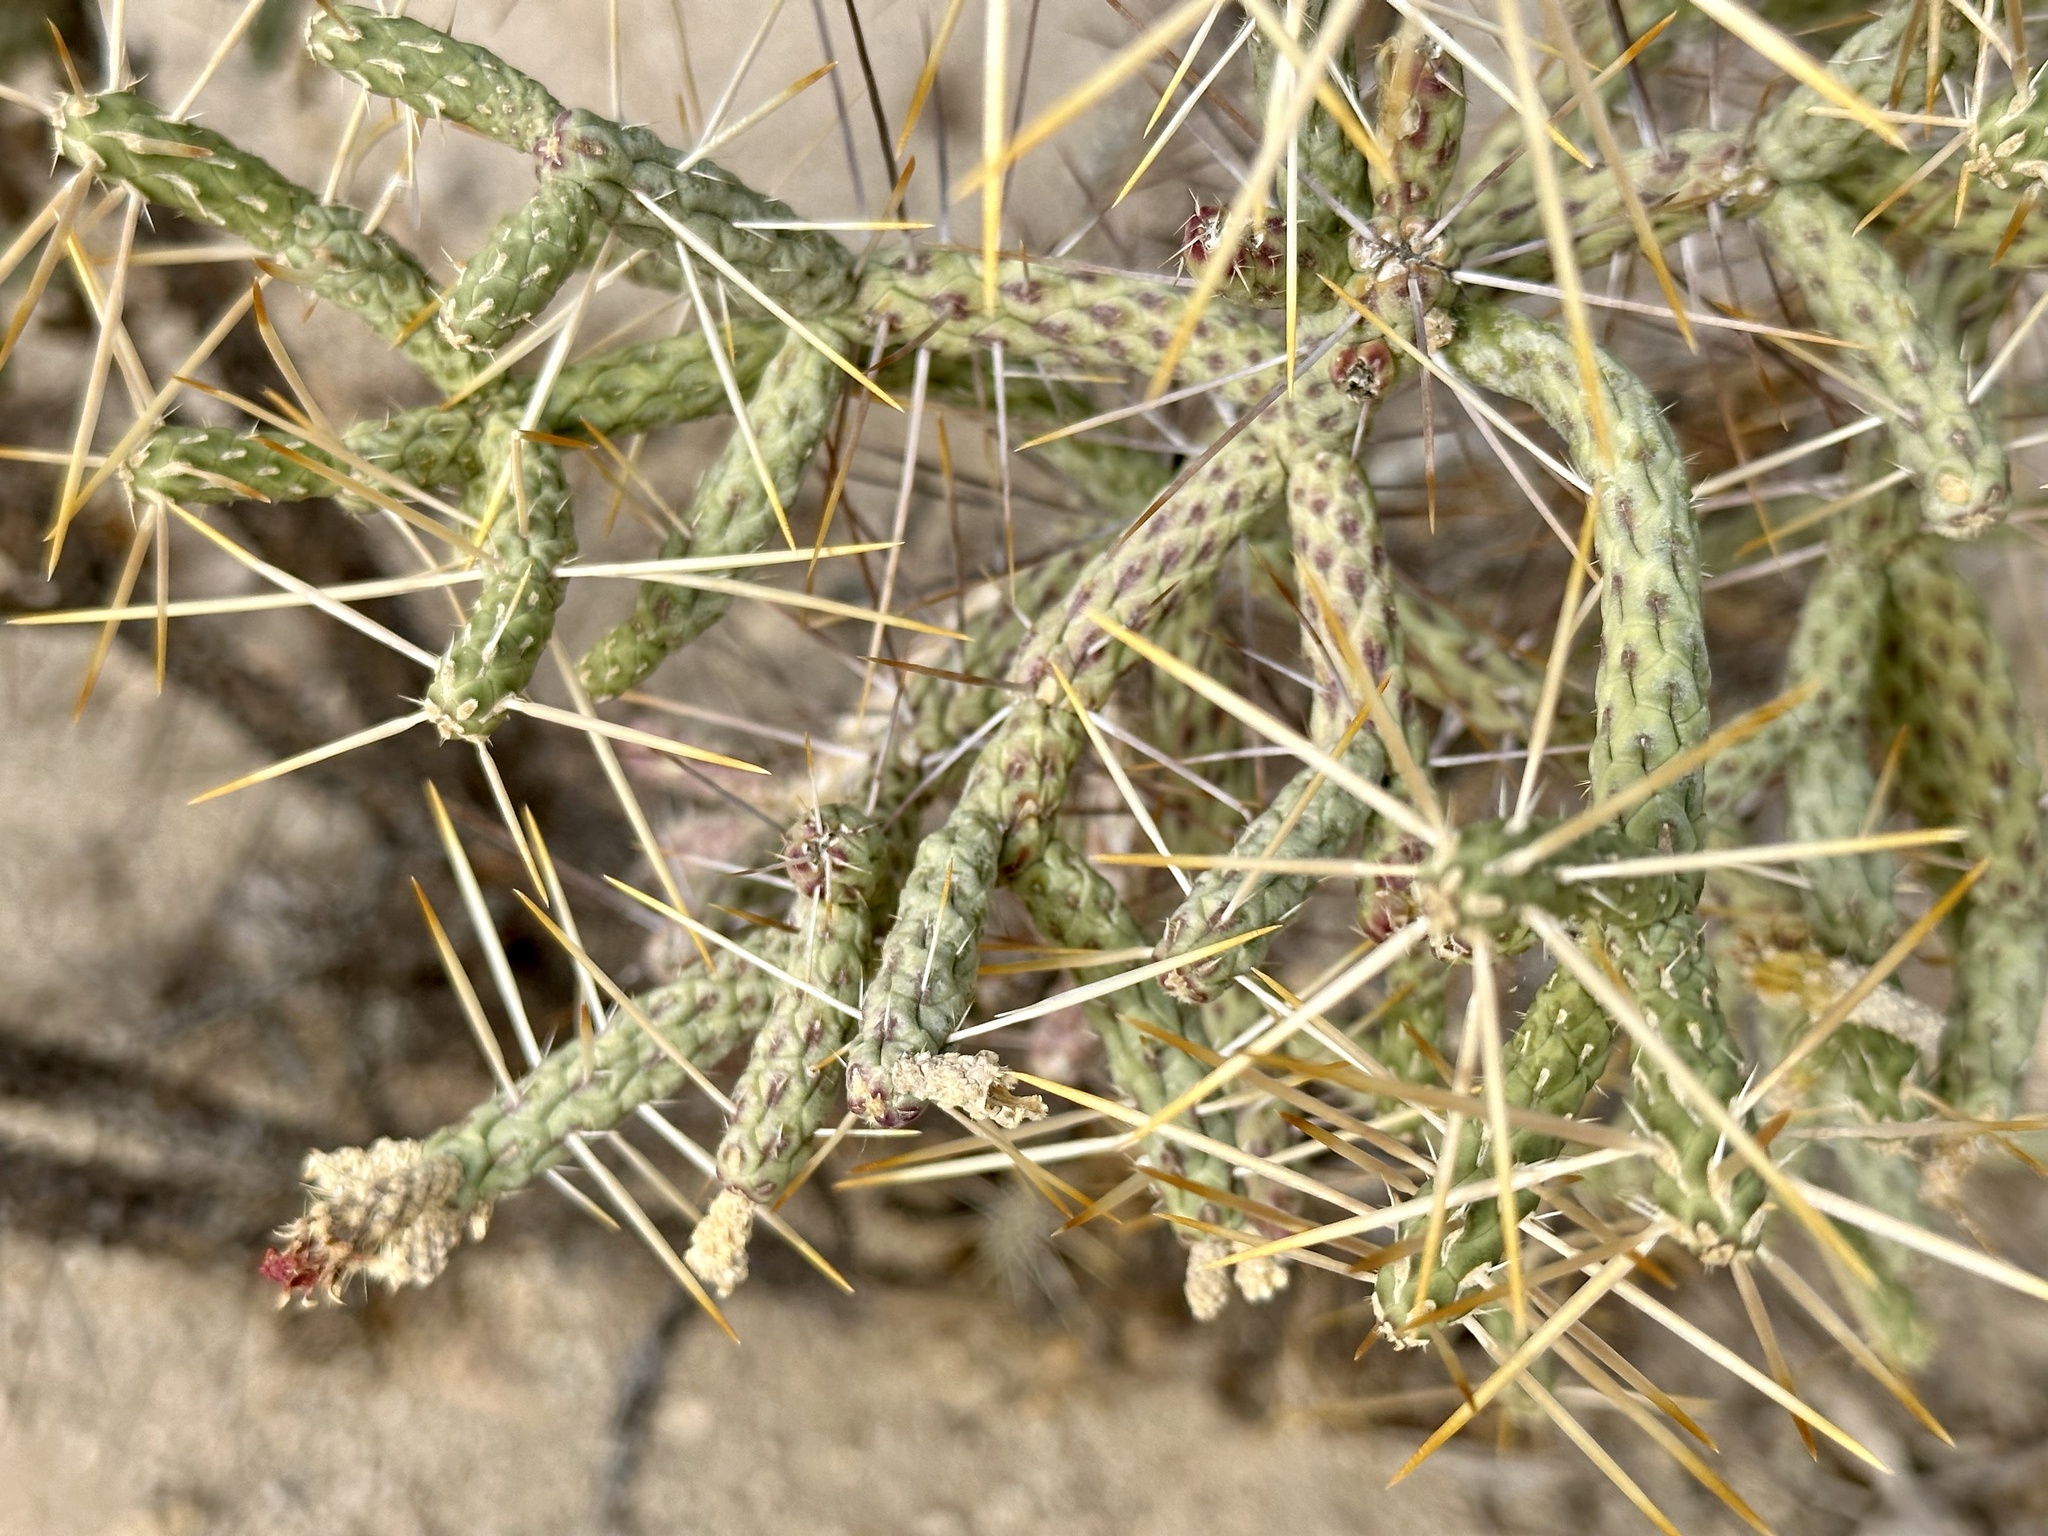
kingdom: Plantae
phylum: Tracheophyta
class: Magnoliopsida
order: Caryophyllales
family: Cactaceae
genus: Cylindropuntia
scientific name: Cylindropuntia ramosissima
